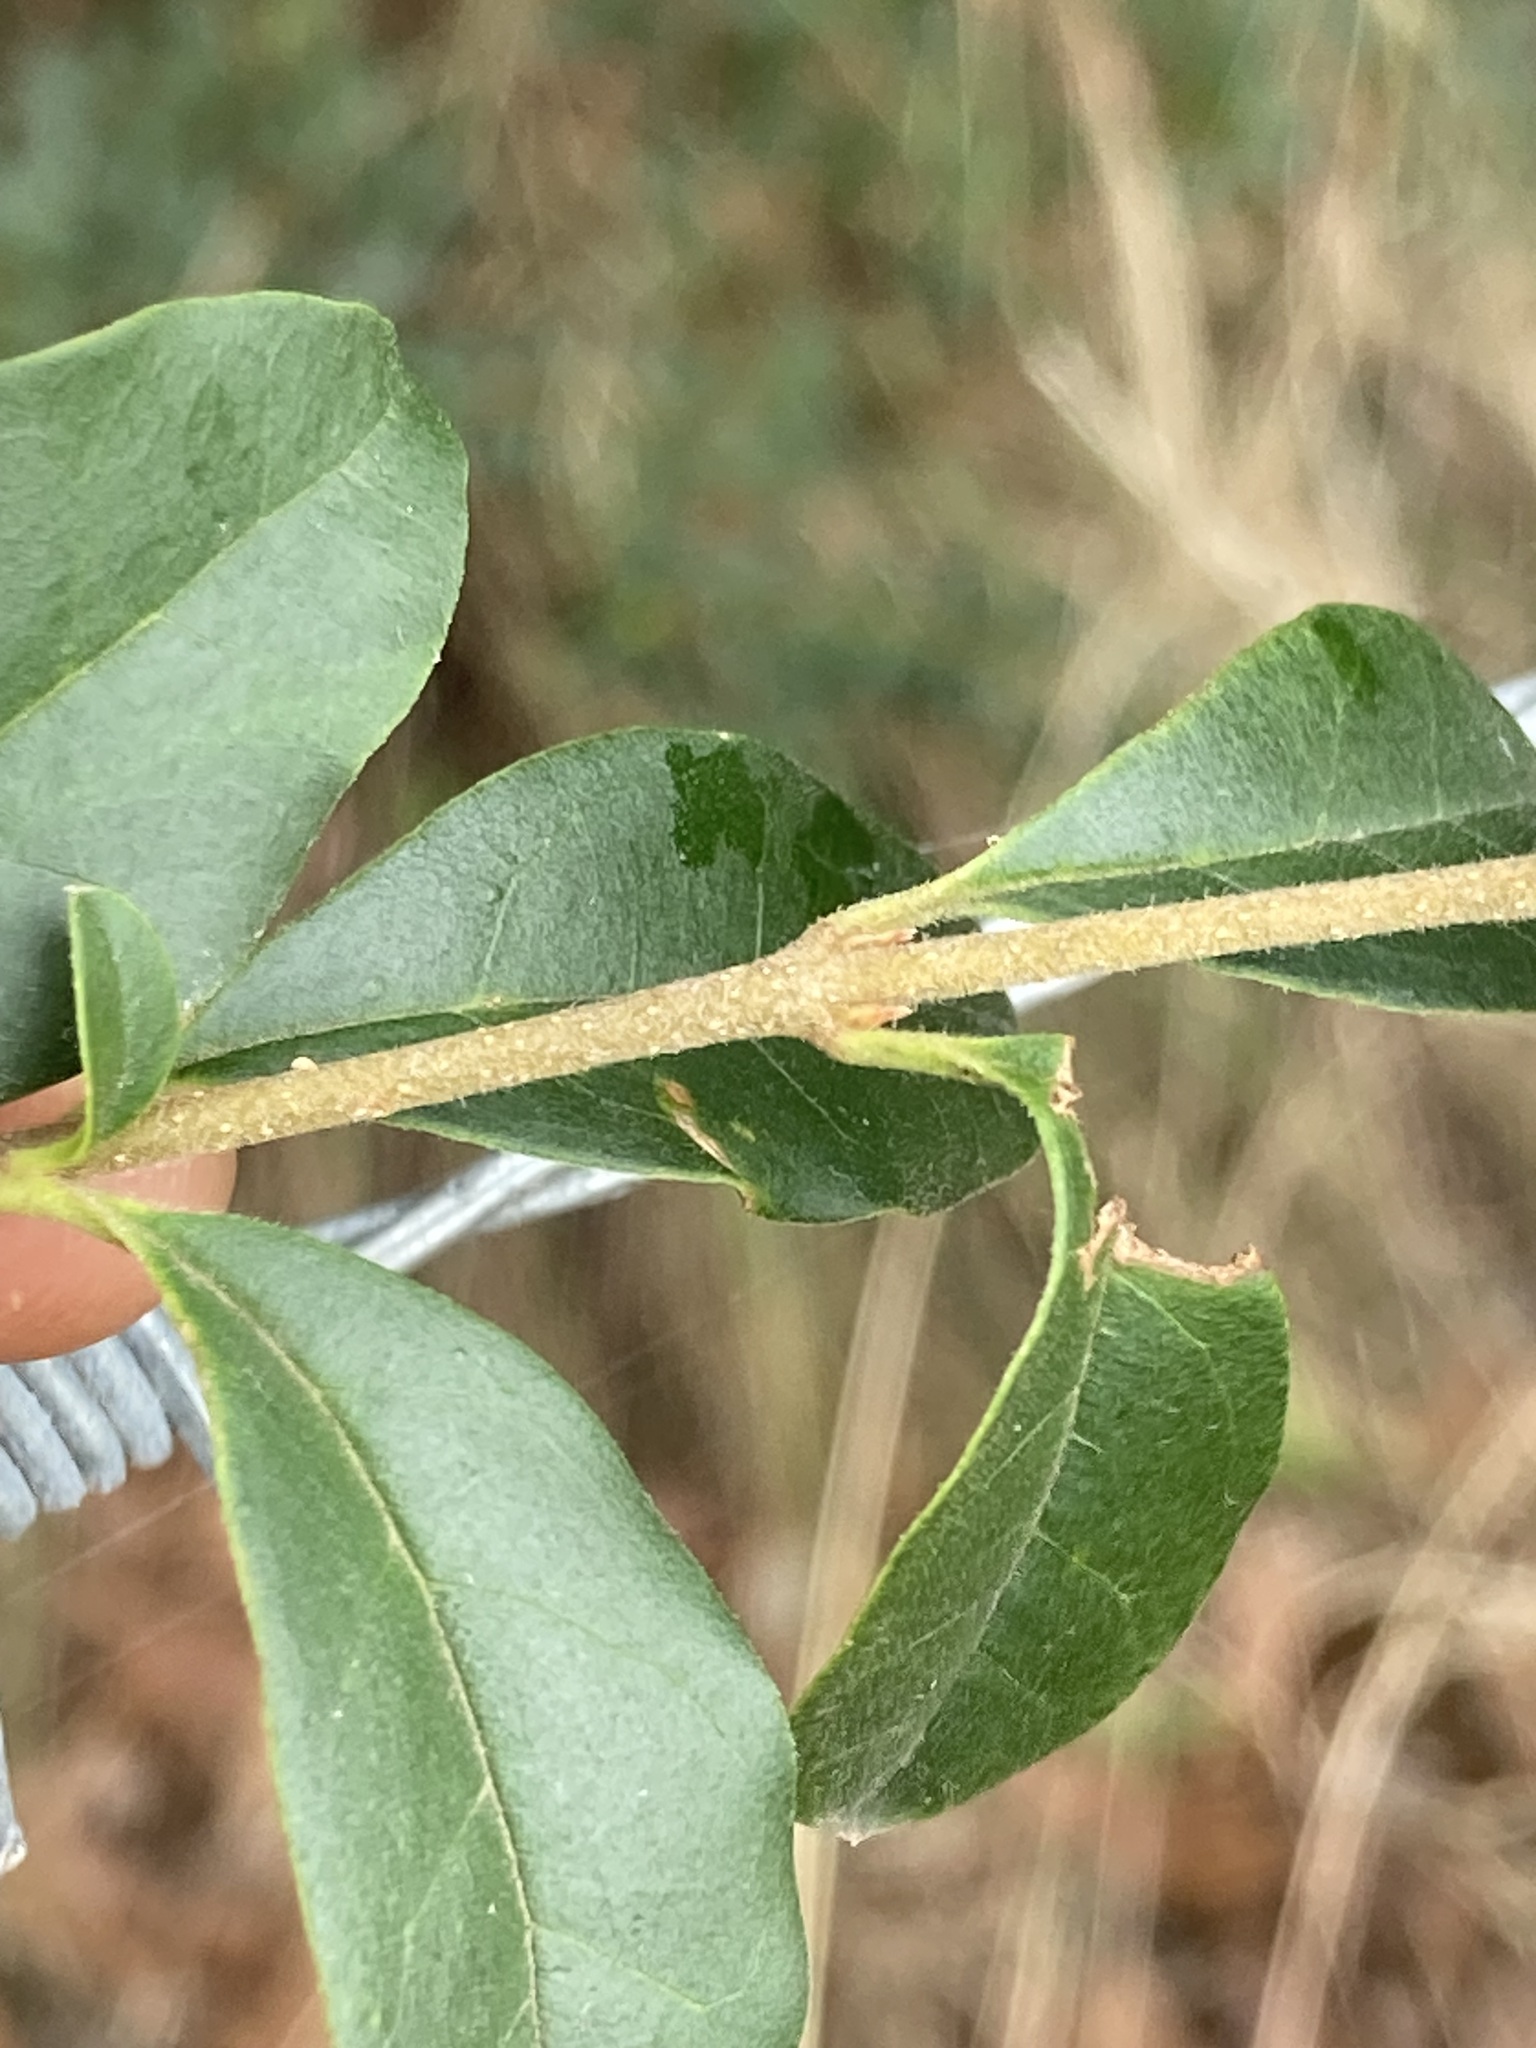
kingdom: Plantae
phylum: Tracheophyta
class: Magnoliopsida
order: Lamiales
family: Oleaceae
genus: Ligustrum
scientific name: Ligustrum sinense
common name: Chinese privet
